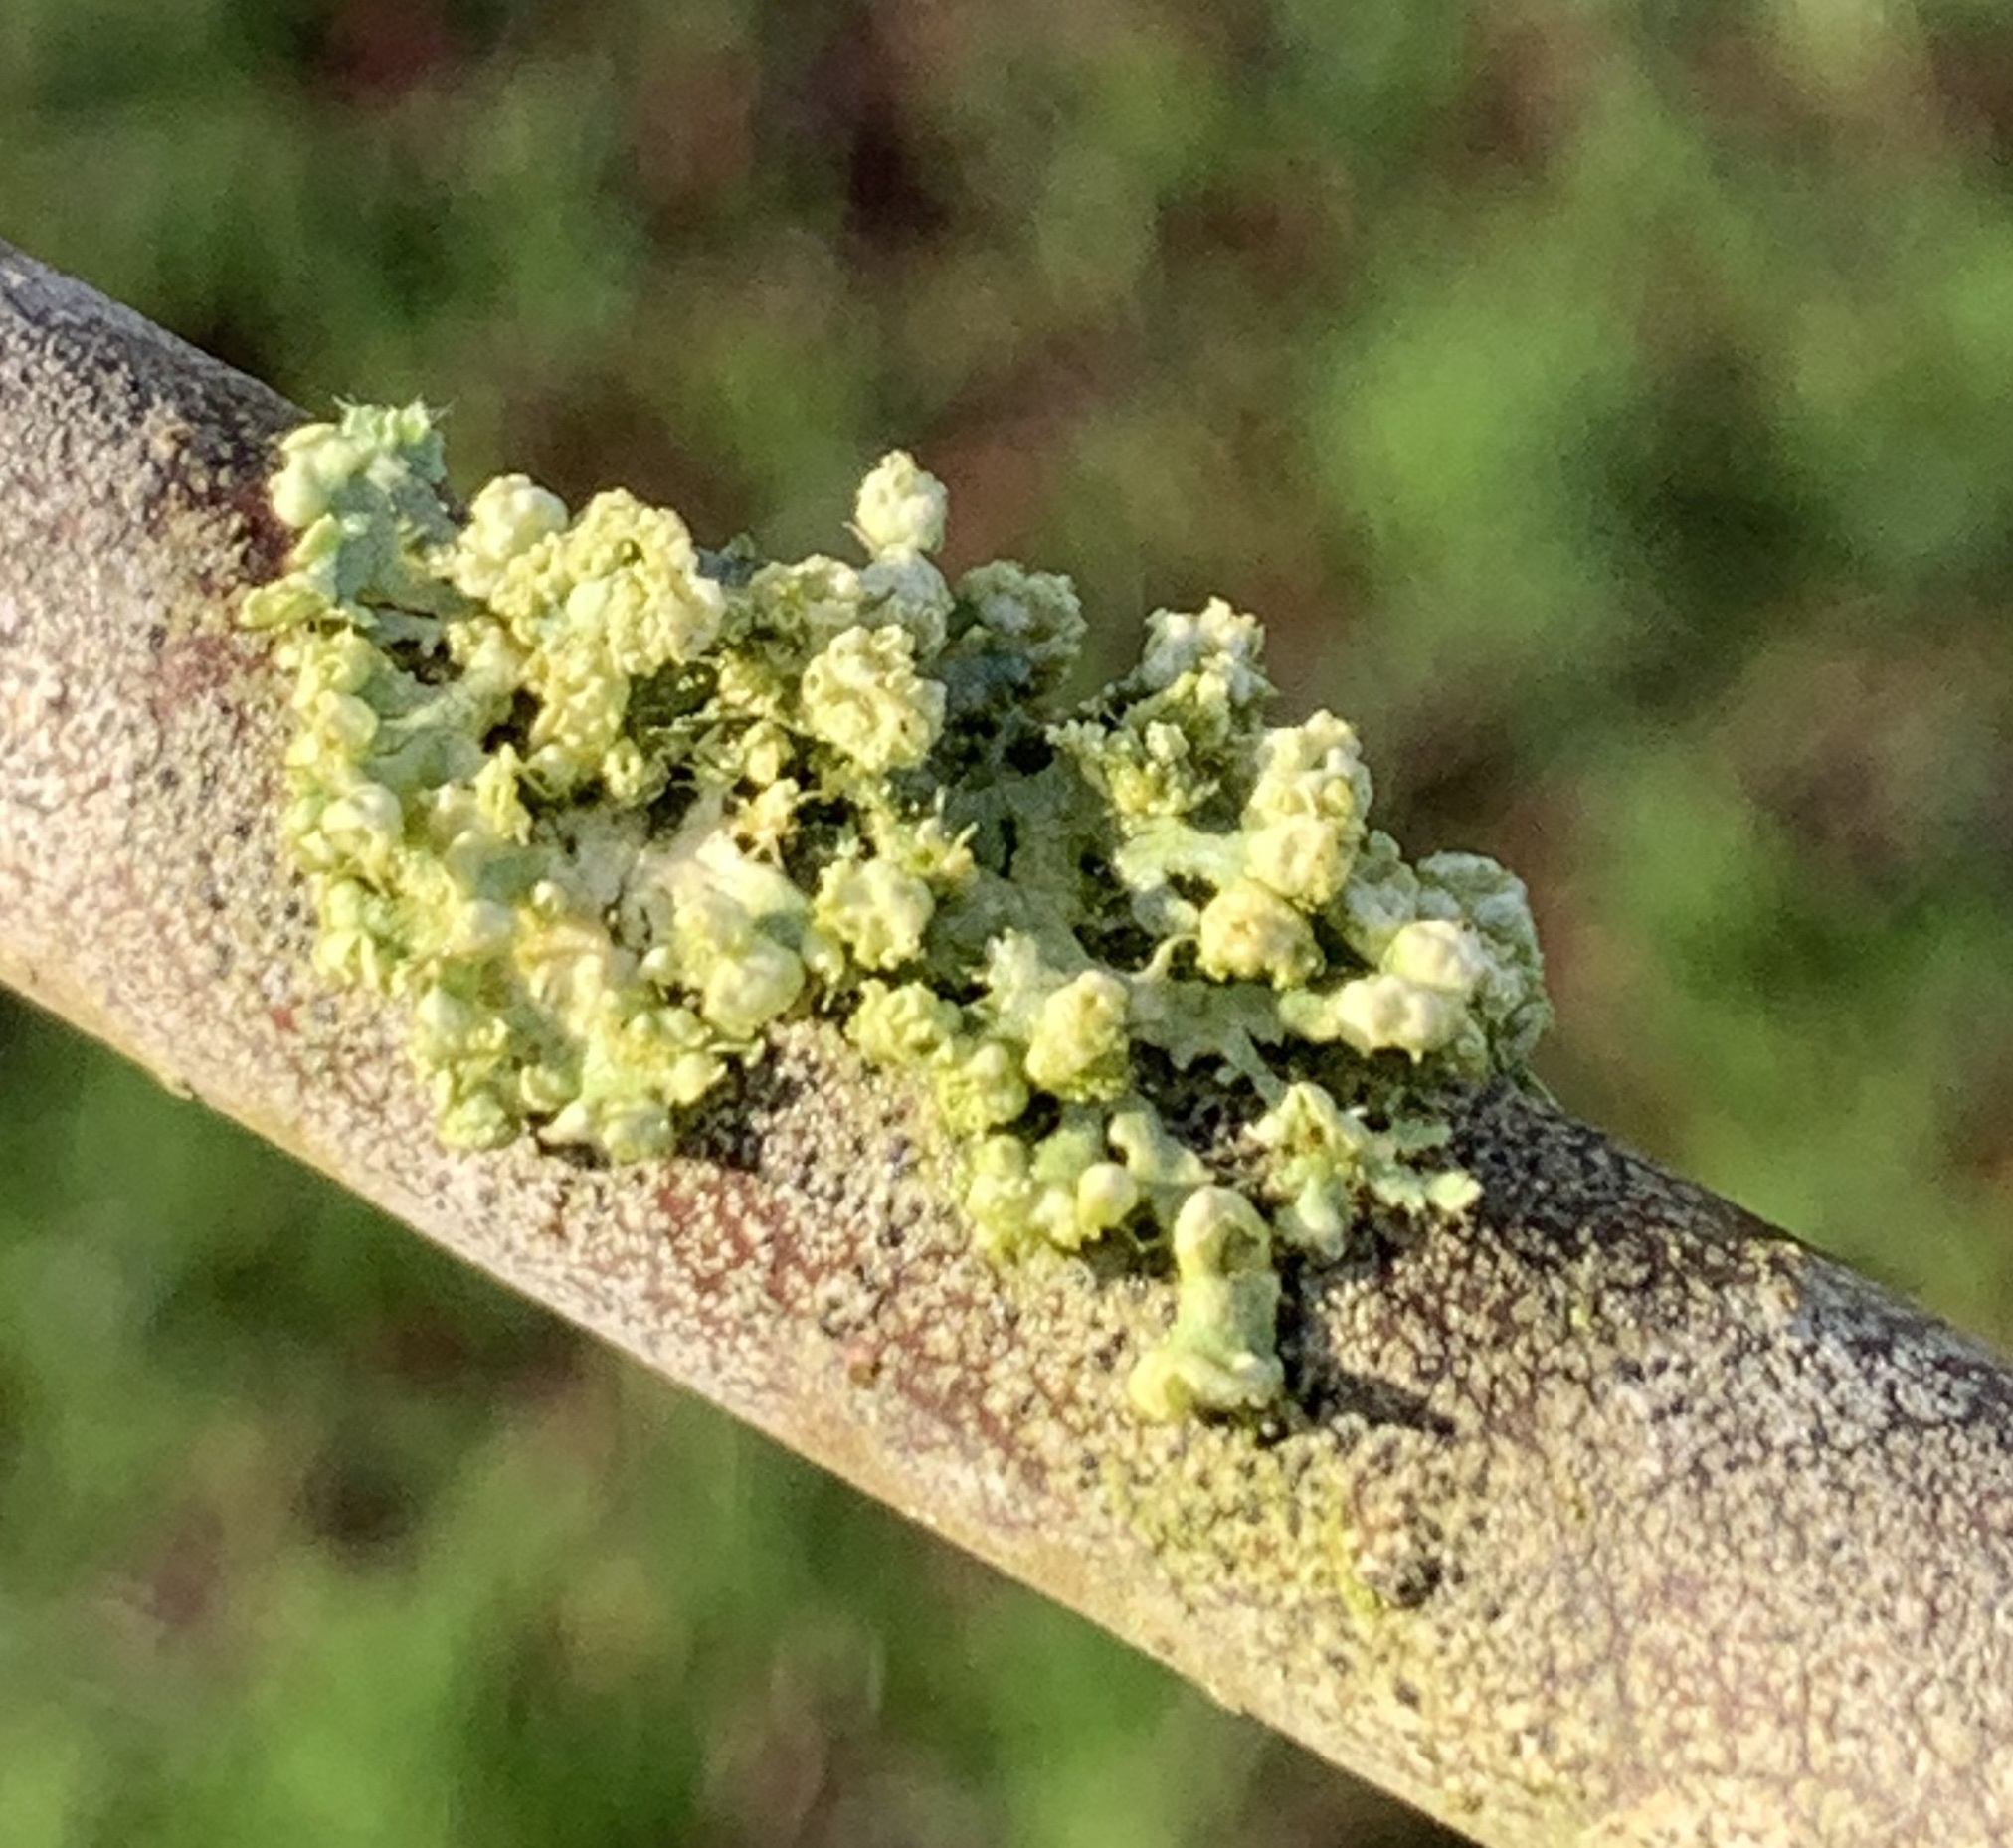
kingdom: Fungi
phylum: Ascomycota
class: Lecanoromycetes
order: Caliciales
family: Physciaceae
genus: Physcia
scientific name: Physcia adscendens
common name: Hooded rosette lichen
